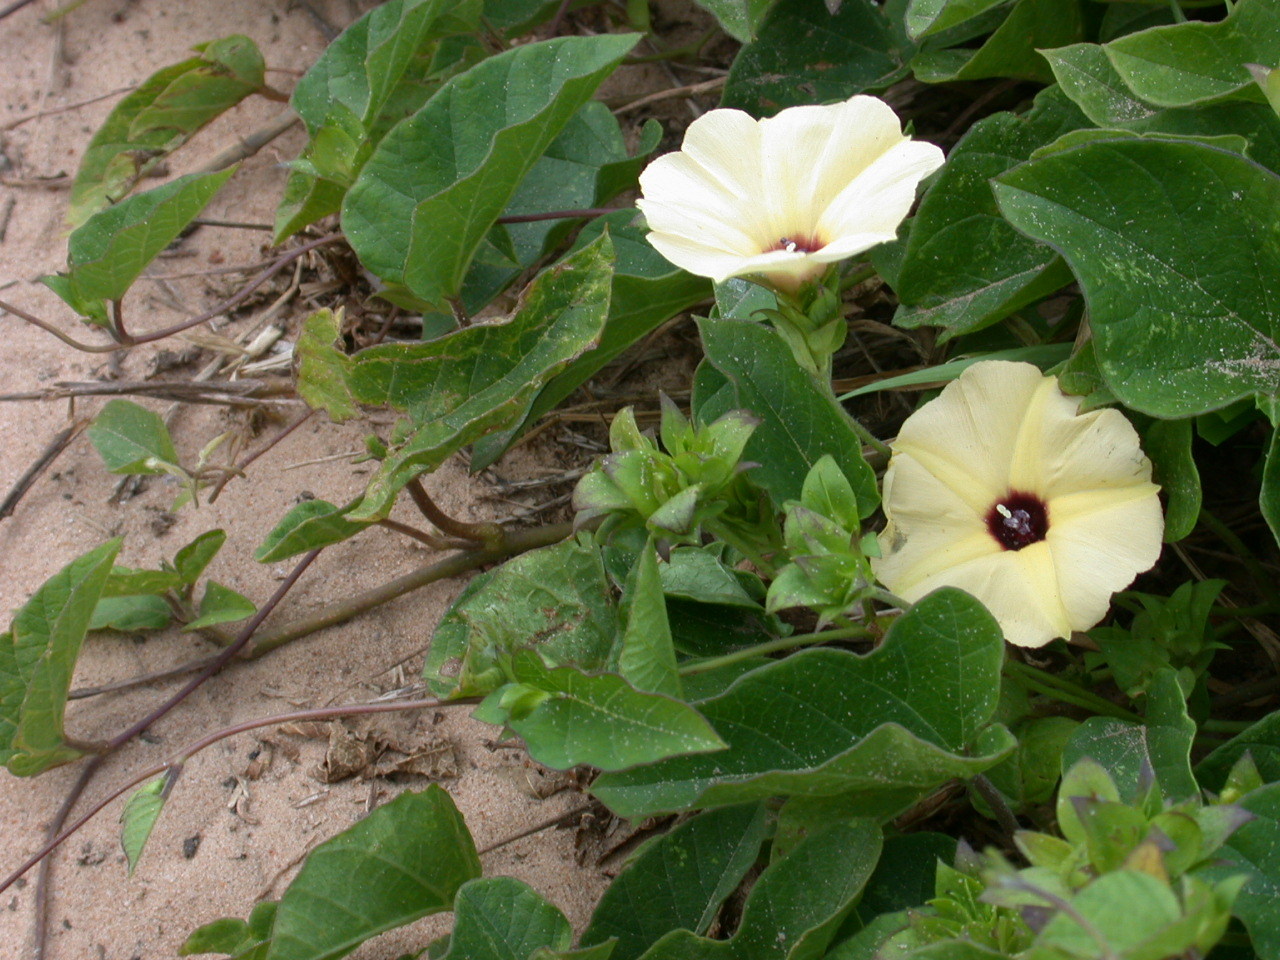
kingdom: Plantae
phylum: Tracheophyta
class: Magnoliopsida
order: Solanales
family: Convolvulaceae
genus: Hewittia
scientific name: Hewittia malabarica
